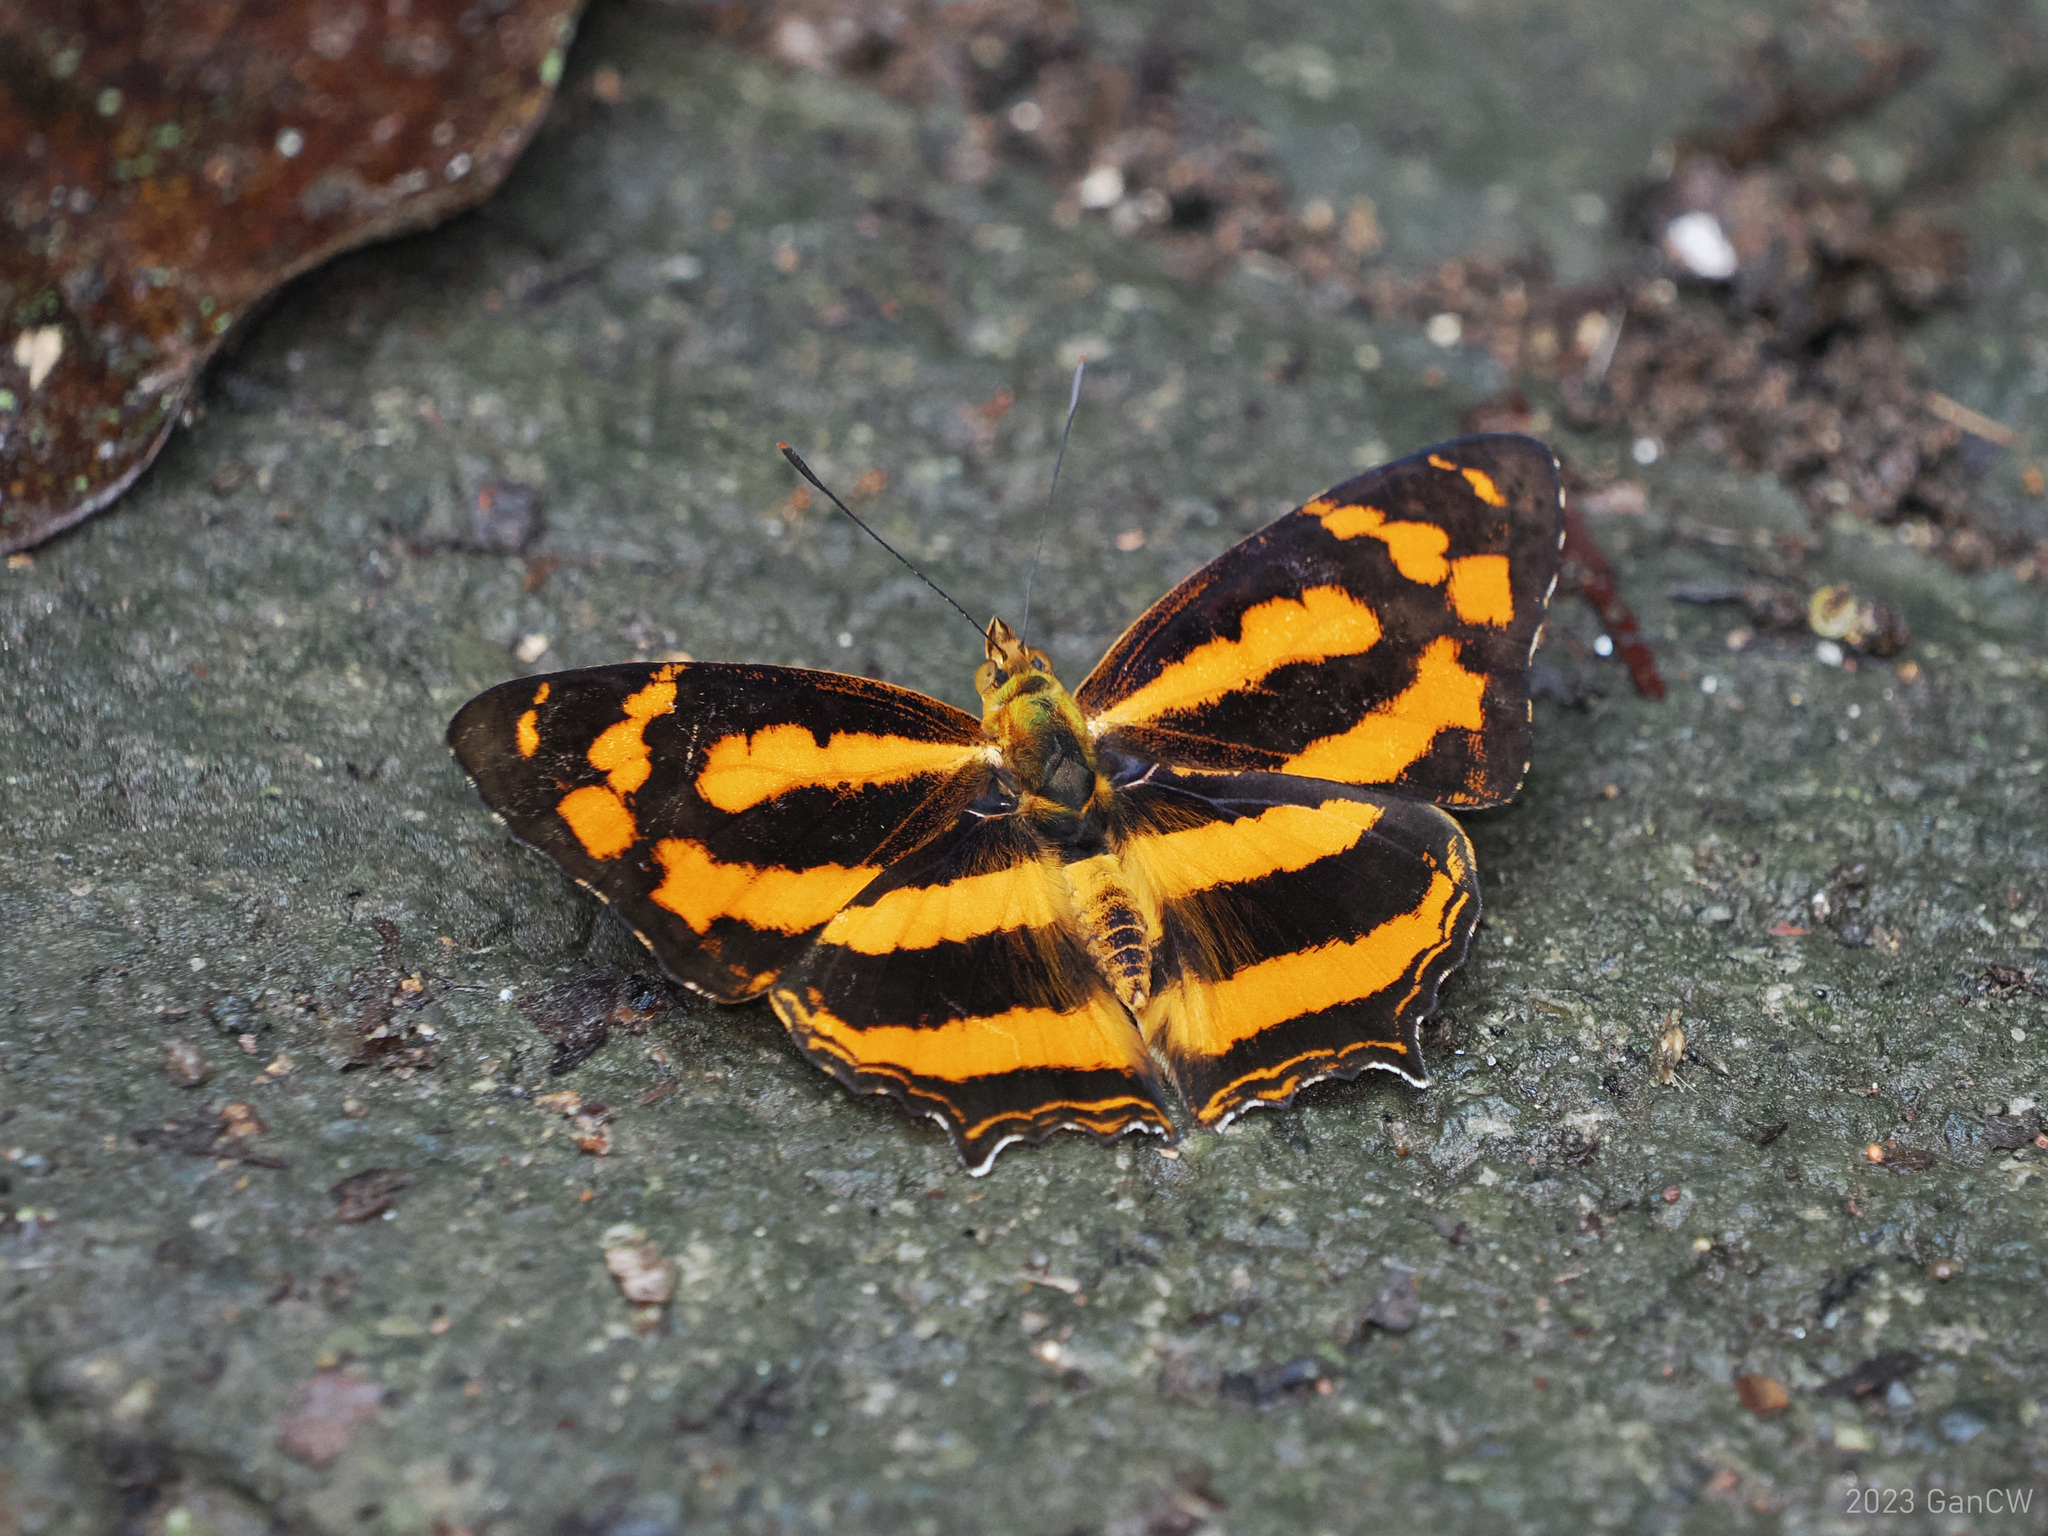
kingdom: Animalia
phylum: Arthropoda
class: Insecta
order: Lepidoptera
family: Nymphalidae
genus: Symbrenthia
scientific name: Symbrenthia hippoclus
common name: Common jester
